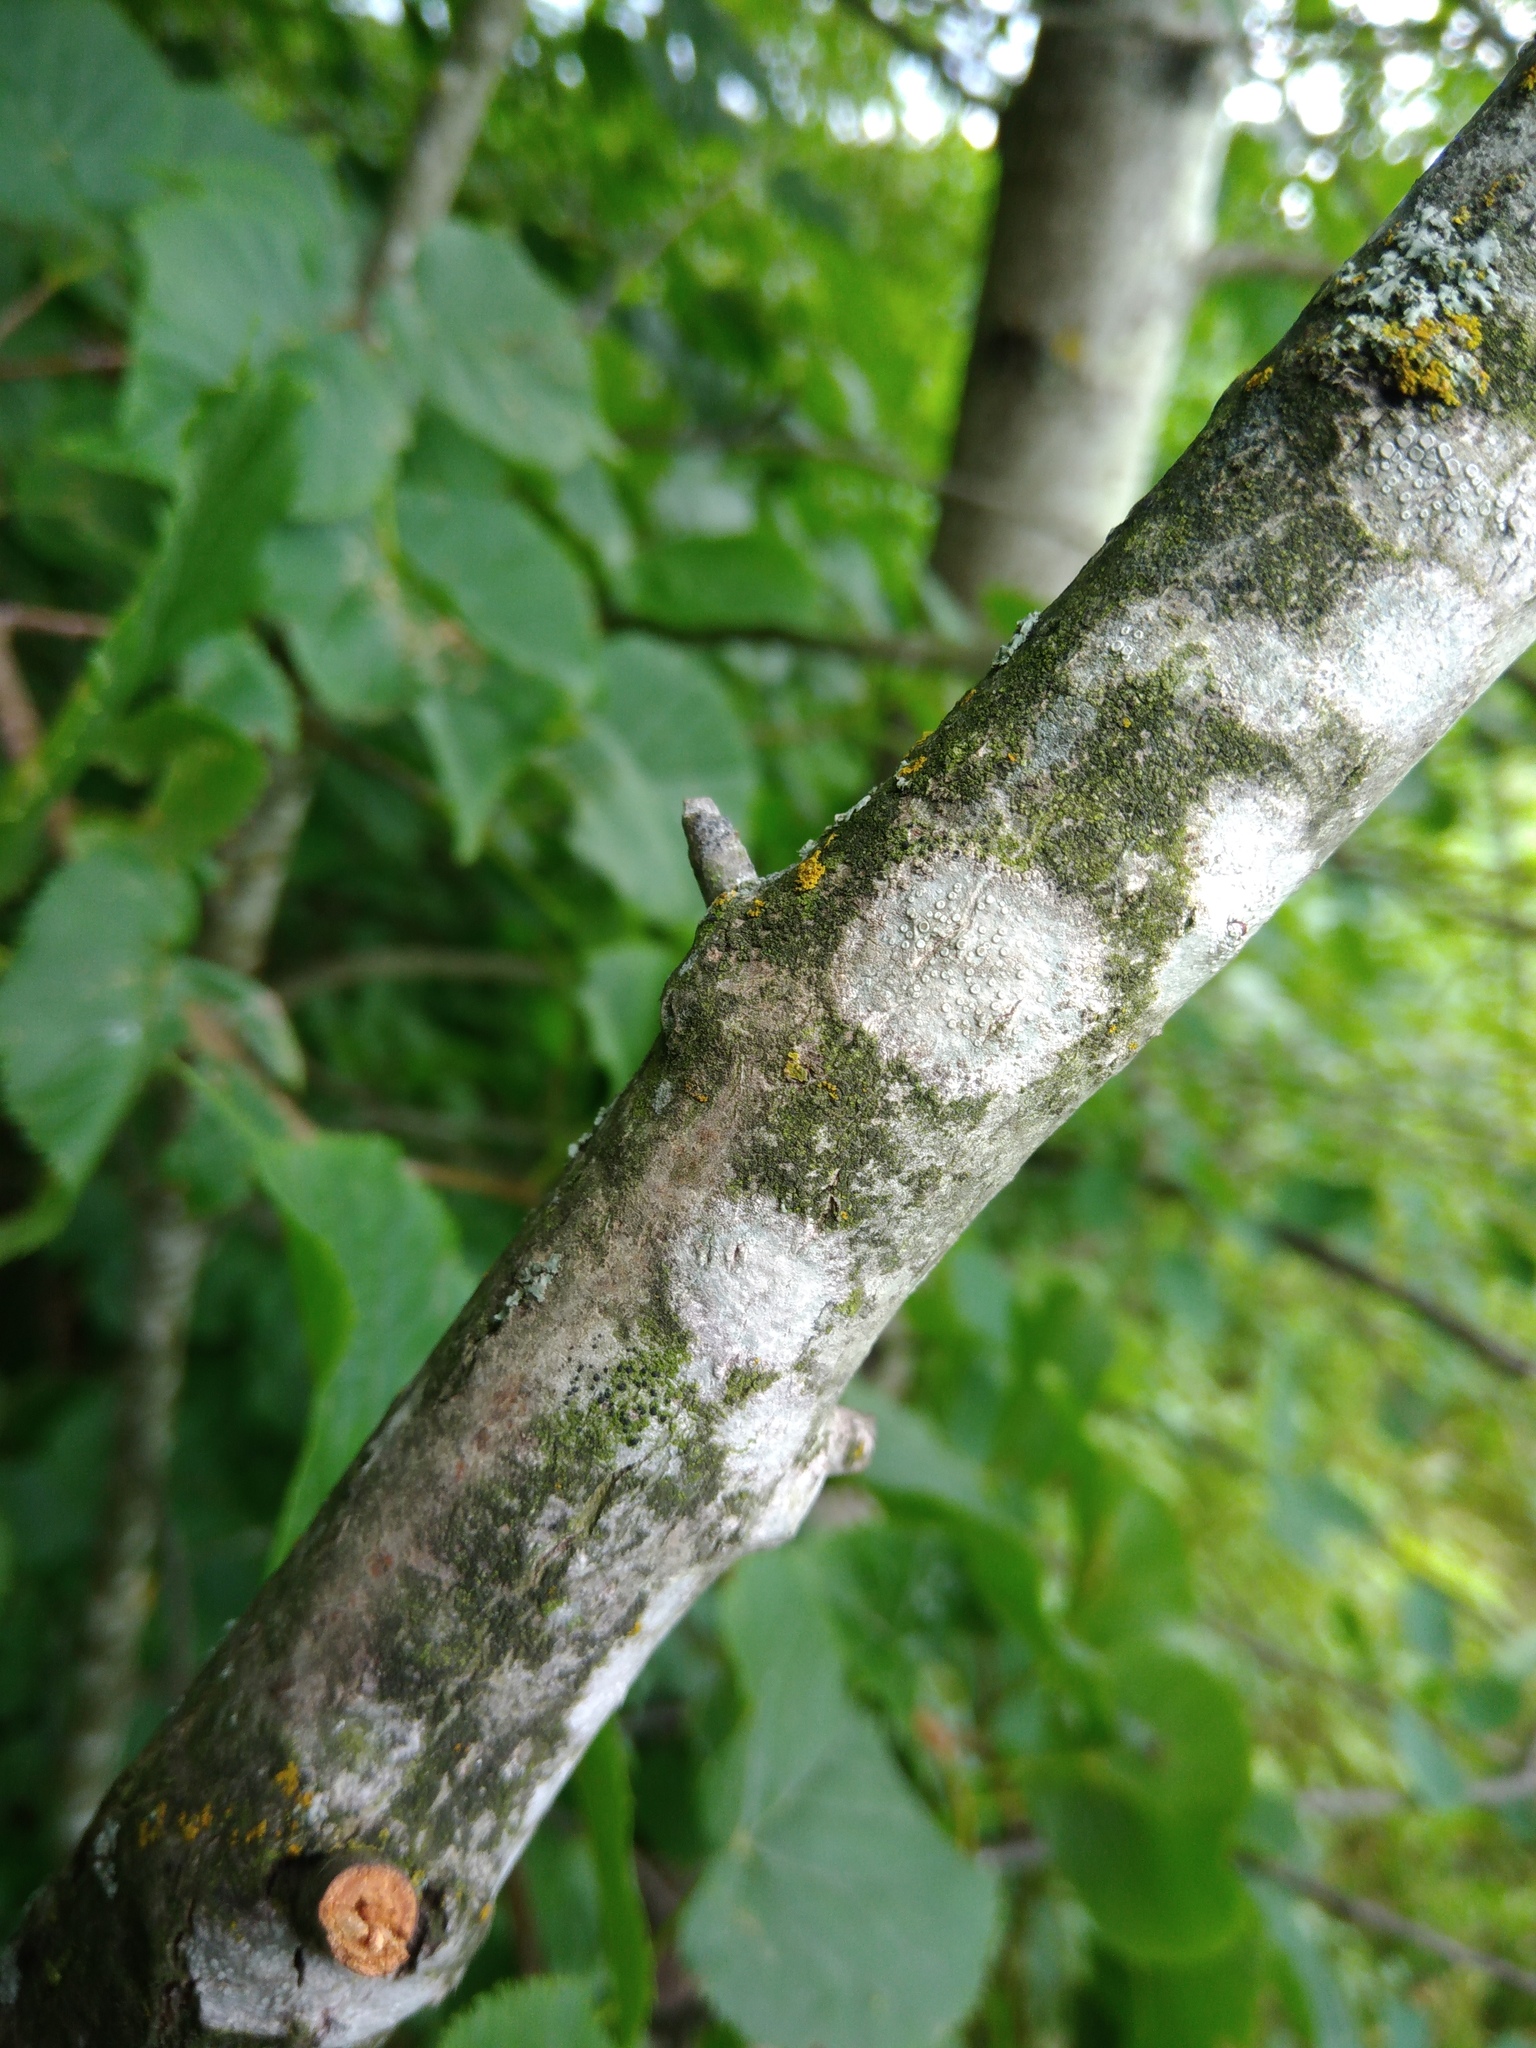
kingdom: Fungi
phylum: Ascomycota
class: Lecanoromycetes
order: Lecanorales
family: Lecanoraceae
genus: Glaucomaria
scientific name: Glaucomaria carpinea
